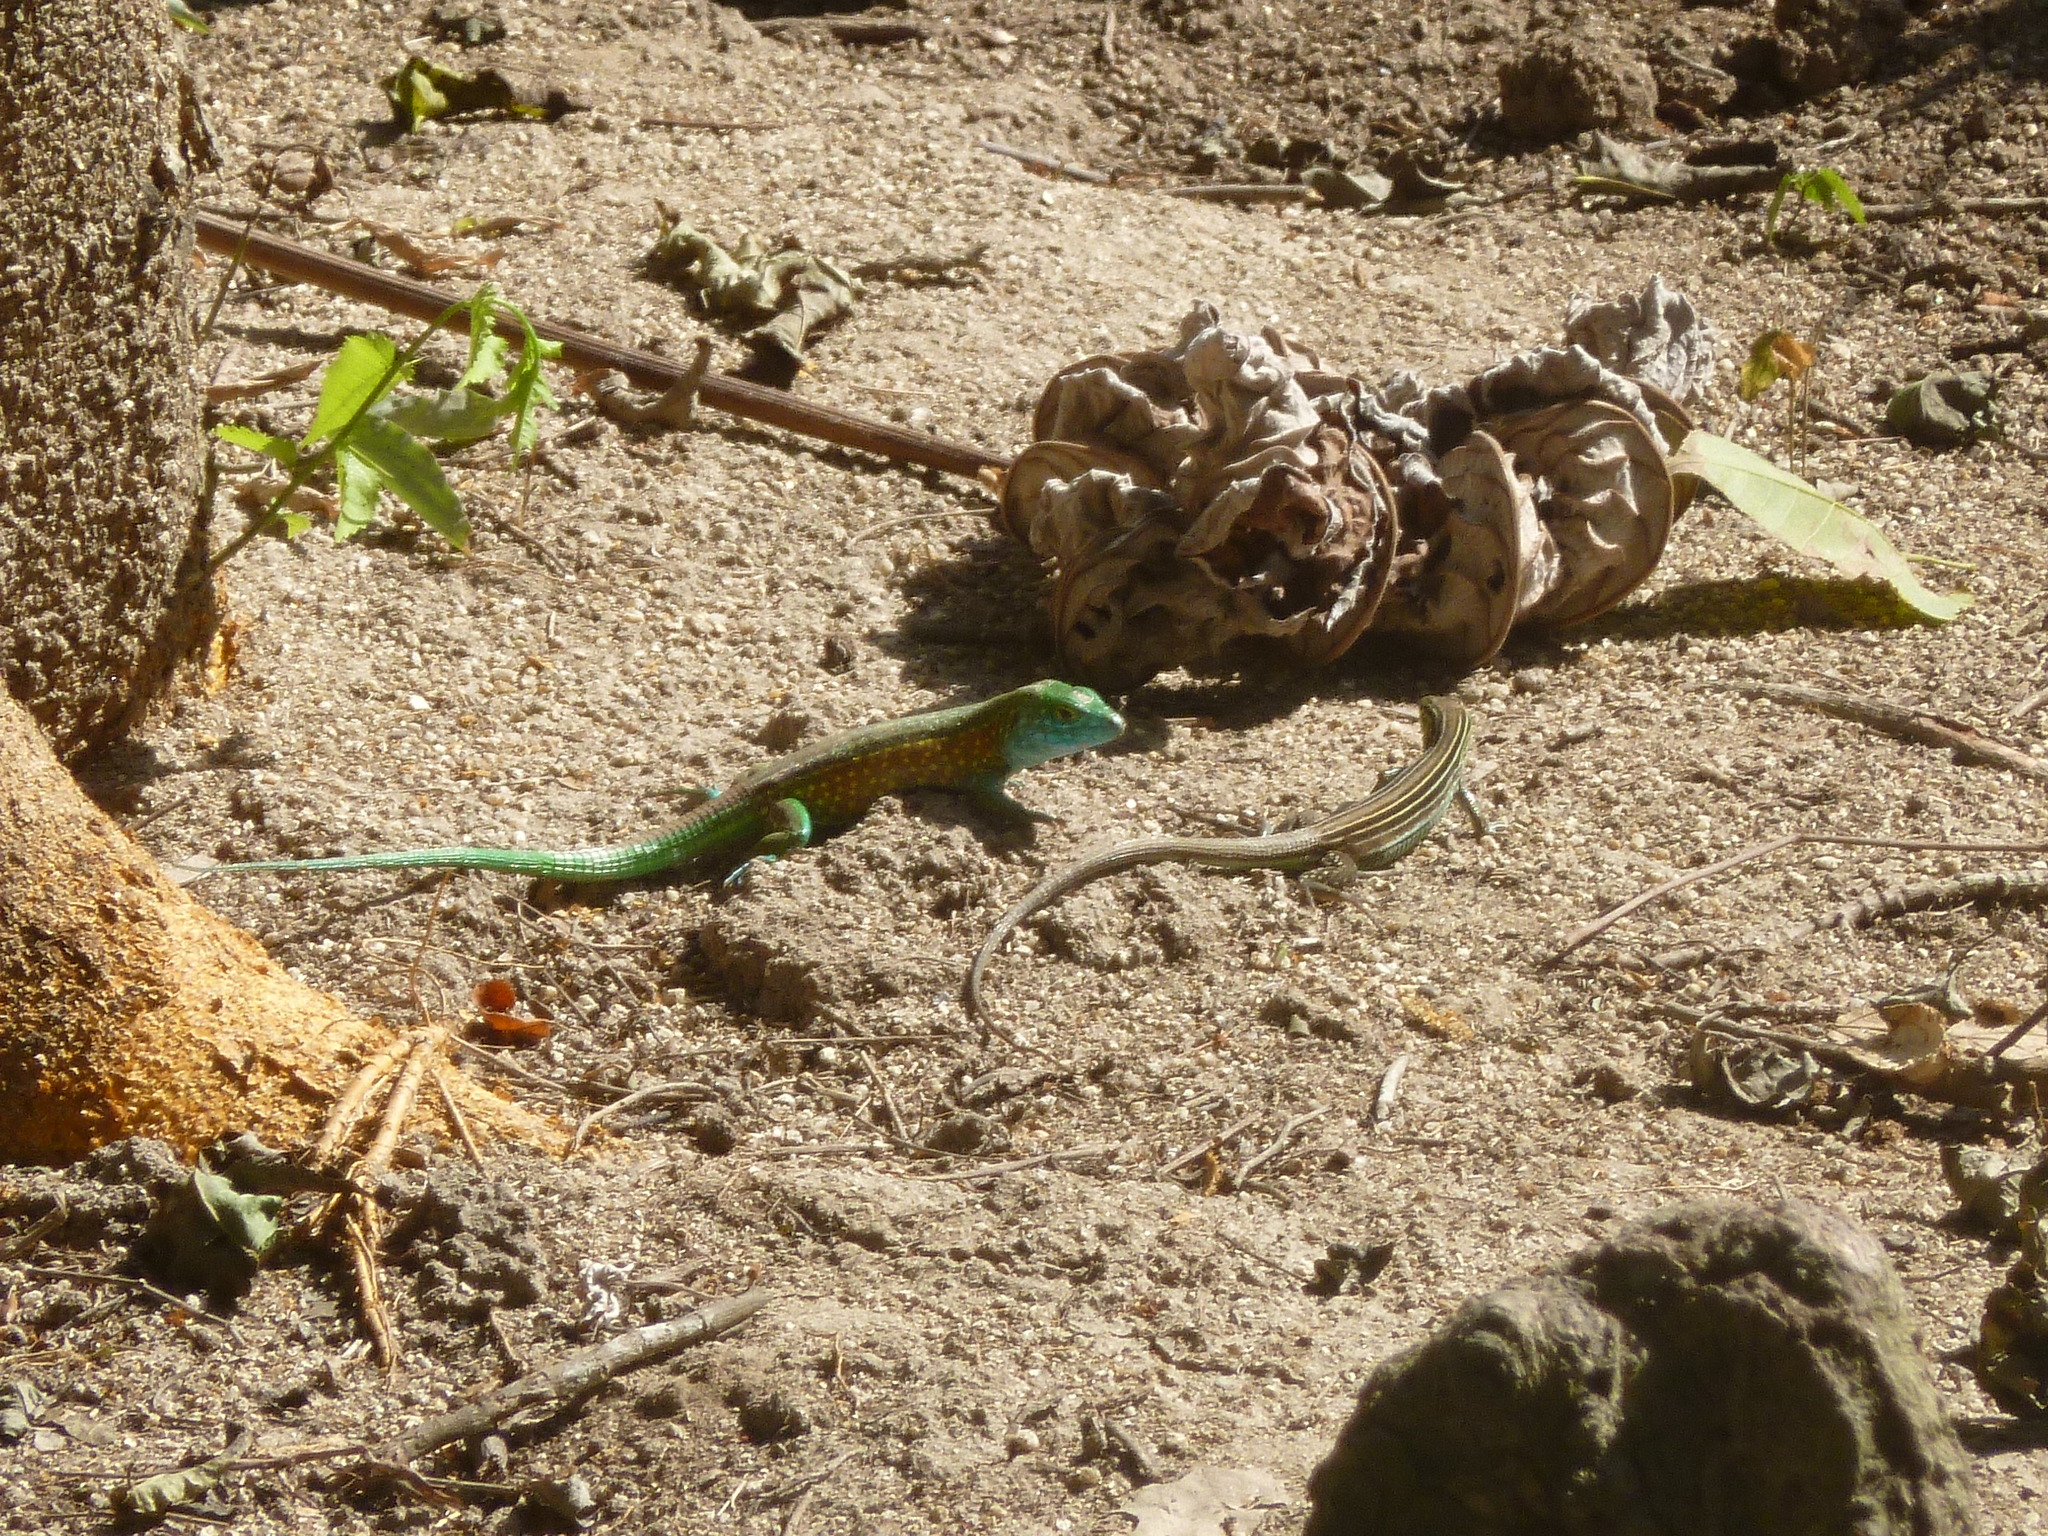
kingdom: Animalia
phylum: Chordata
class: Squamata
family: Teiidae
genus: Cnemidophorus
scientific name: Cnemidophorus gaigei
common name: Gaige’s rainbow lizard
